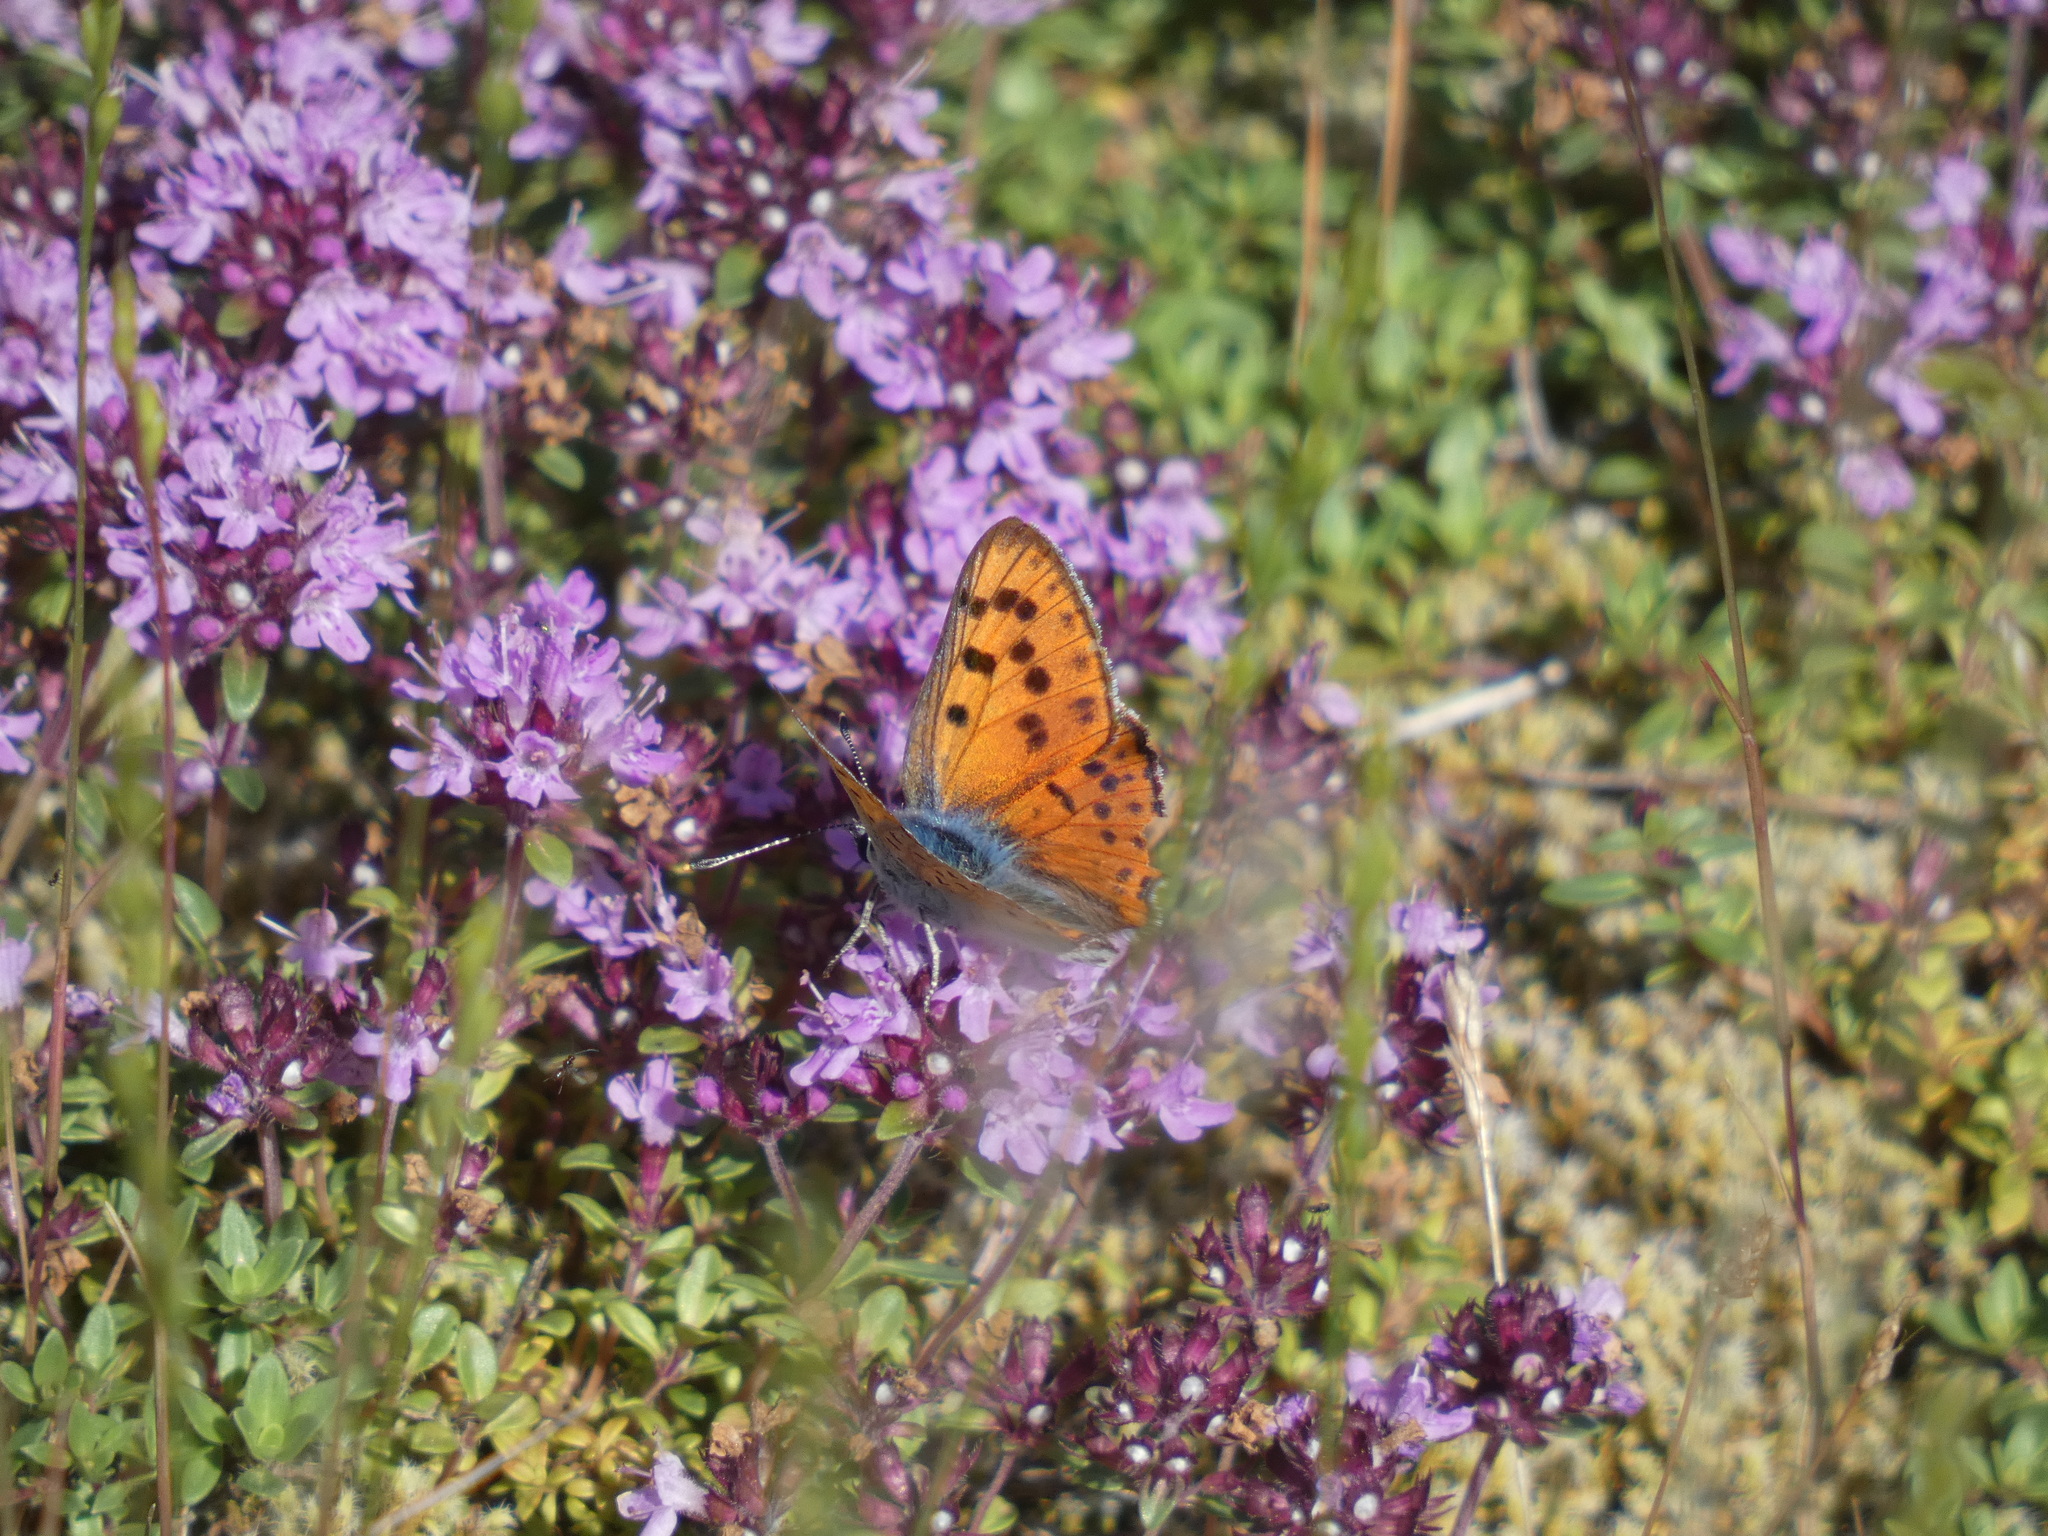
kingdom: Animalia
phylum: Arthropoda
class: Insecta
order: Lepidoptera
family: Lycaenidae
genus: Lycaena
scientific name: Lycaena alciphron
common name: Purple-shot copper
